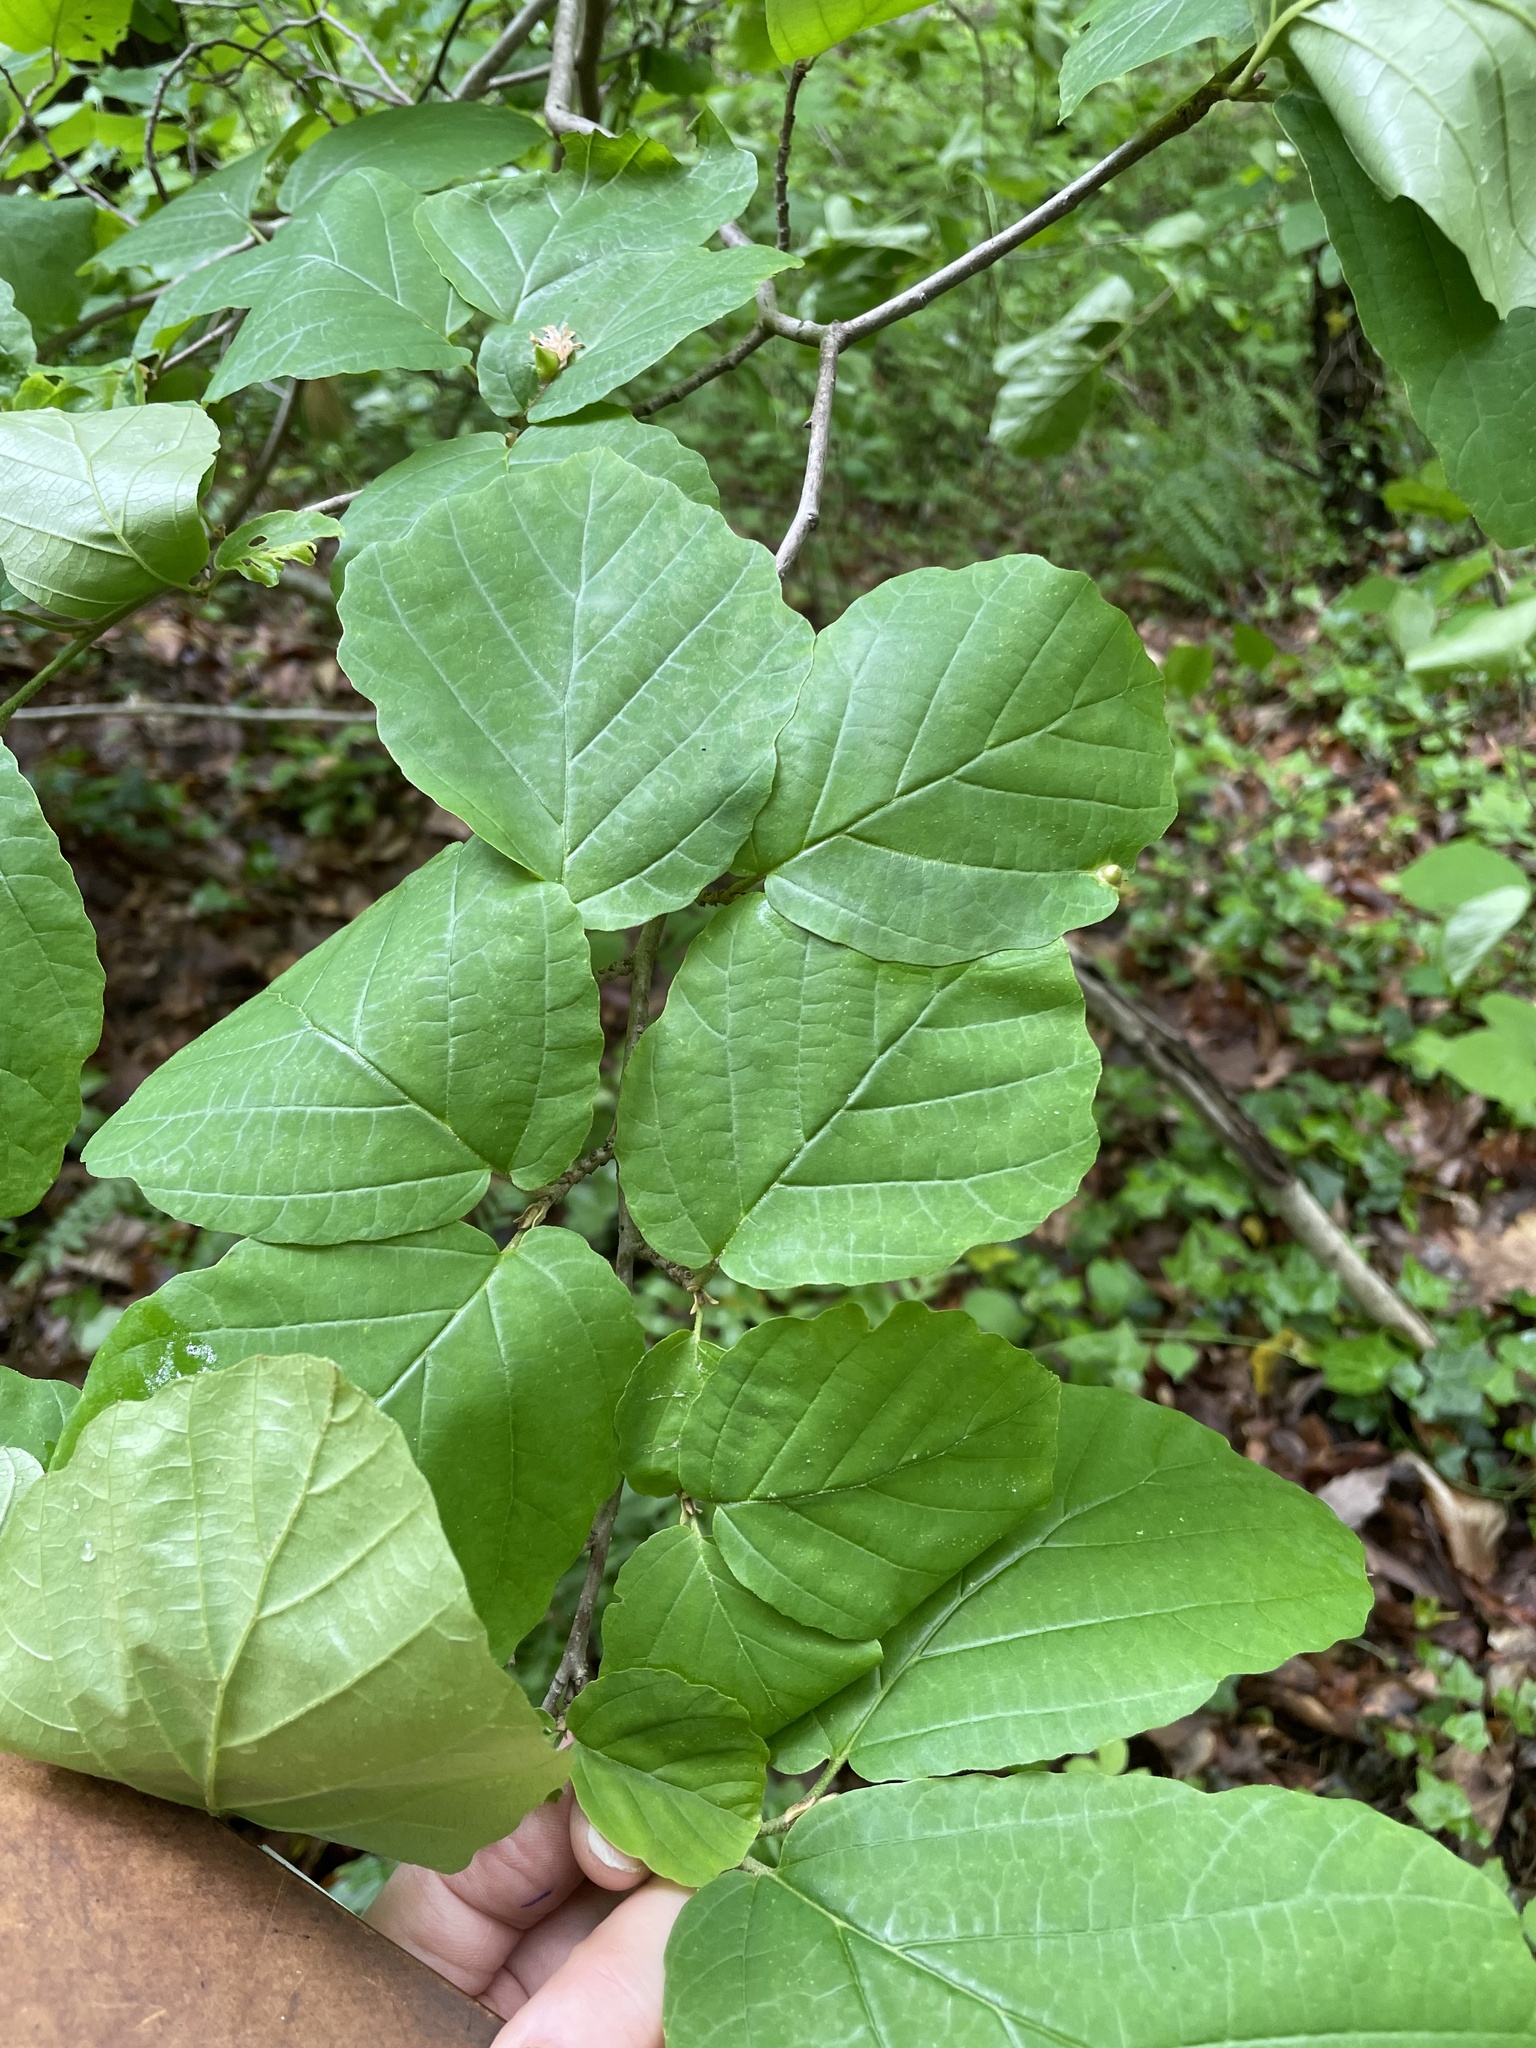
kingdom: Plantae
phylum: Tracheophyta
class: Magnoliopsida
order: Saxifragales
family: Hamamelidaceae
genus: Hamamelis
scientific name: Hamamelis virginiana
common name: Witch-hazel
